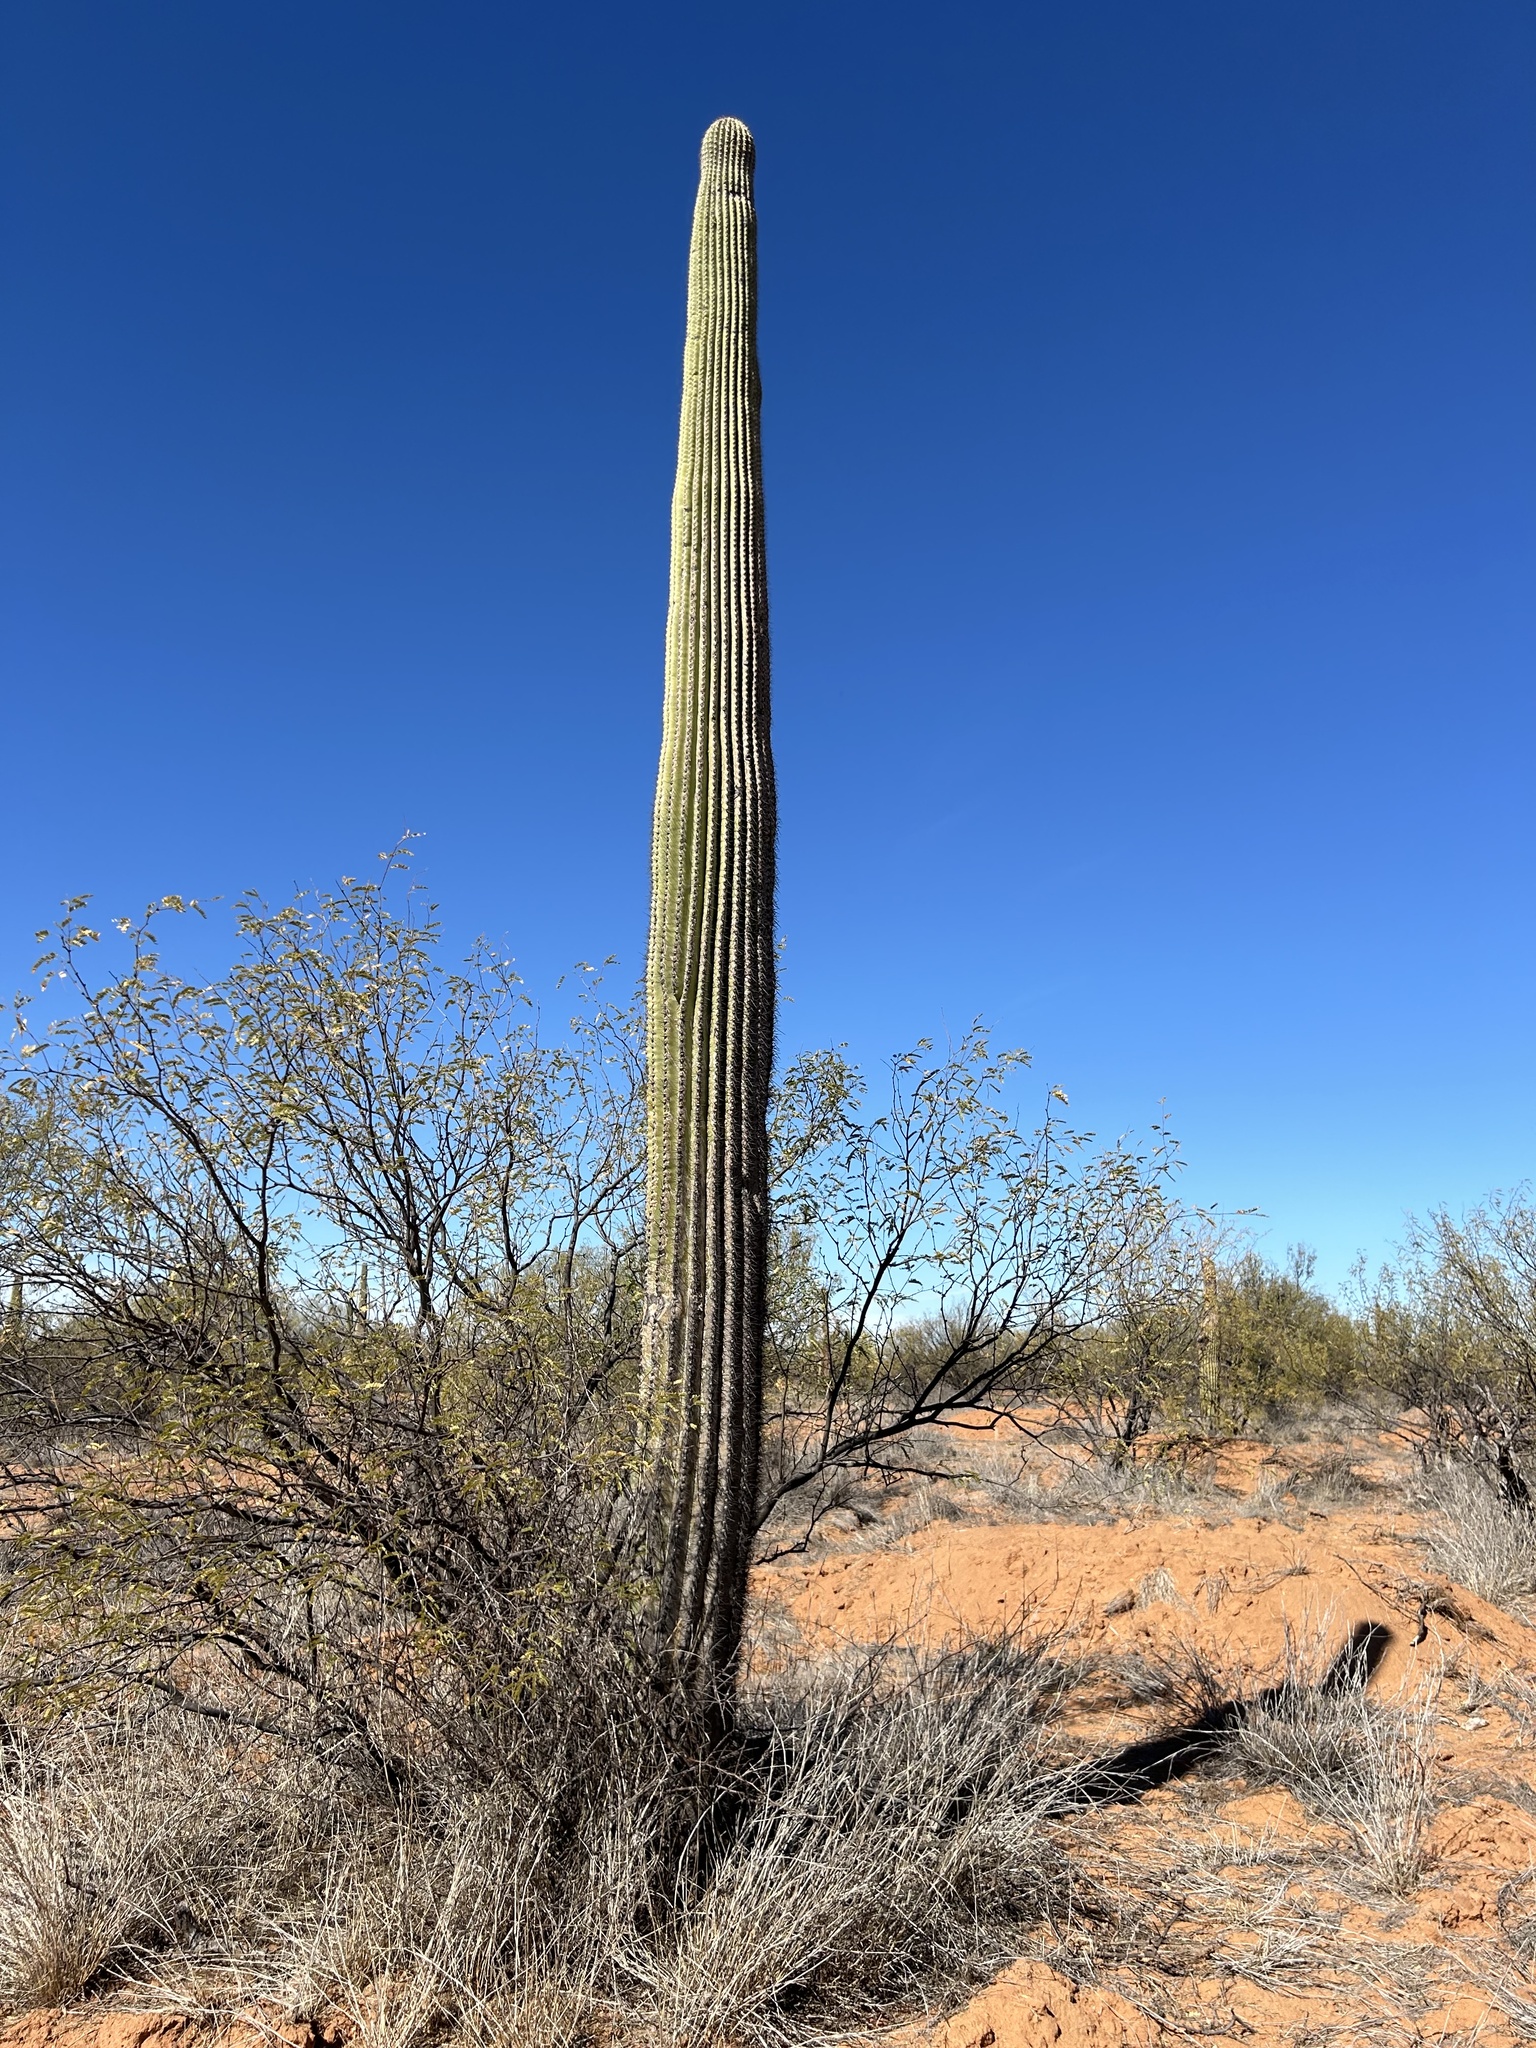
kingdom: Plantae
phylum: Tracheophyta
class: Magnoliopsida
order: Caryophyllales
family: Cactaceae
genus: Carnegiea
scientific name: Carnegiea gigantea
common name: Saguaro
